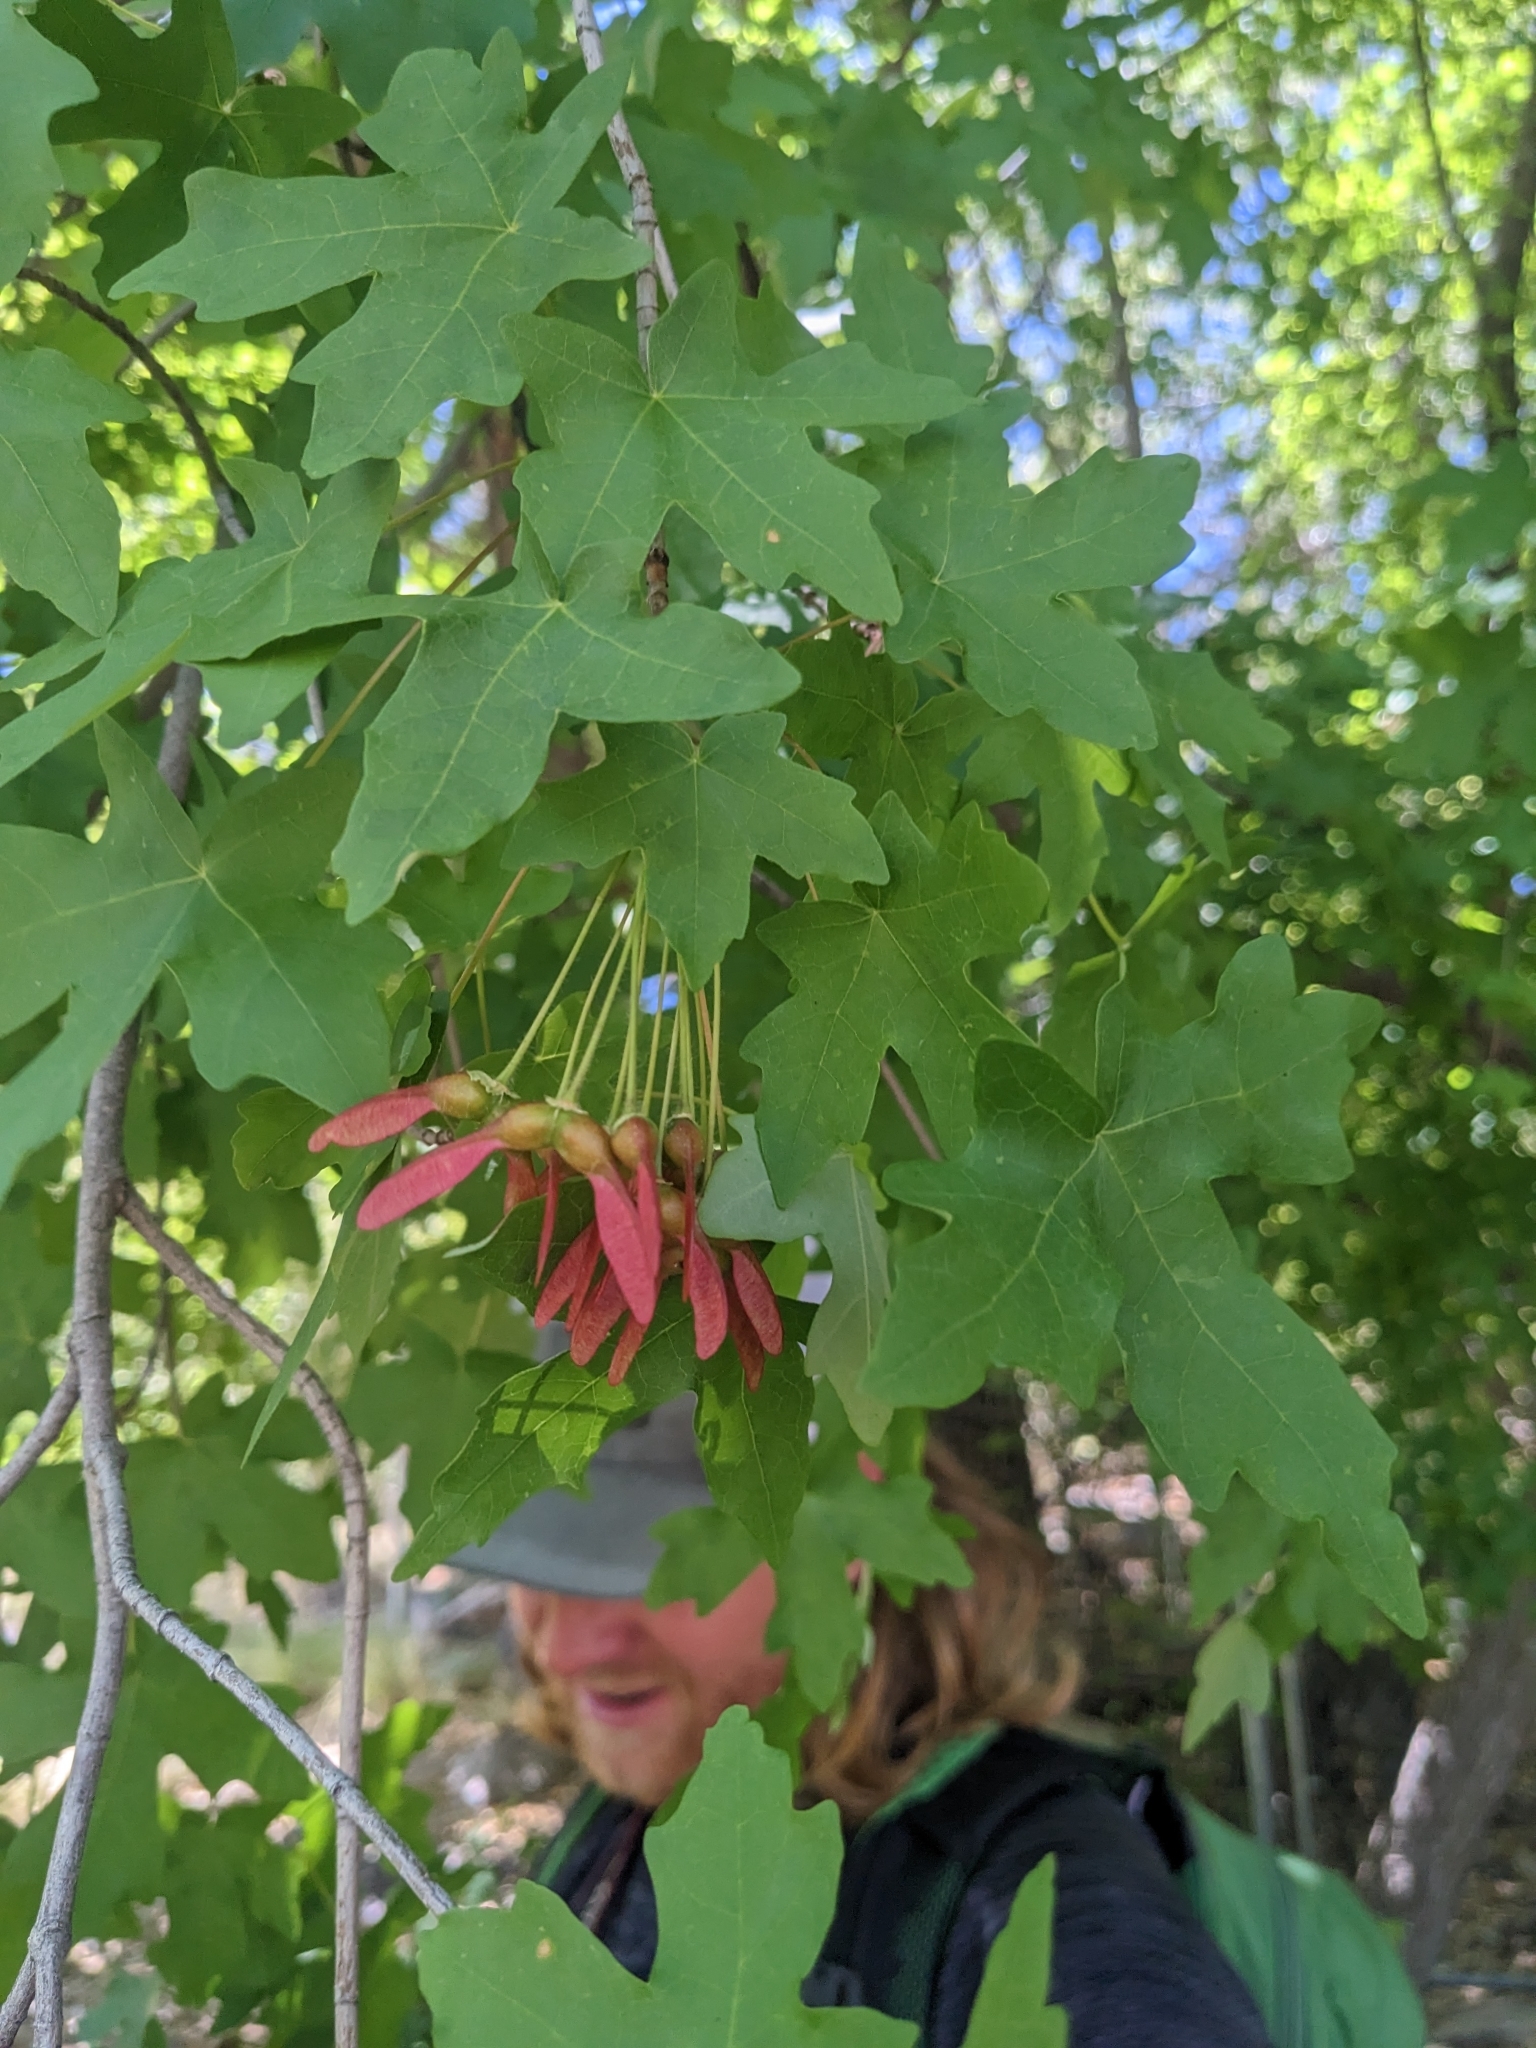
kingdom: Plantae
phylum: Tracheophyta
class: Magnoliopsida
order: Sapindales
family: Sapindaceae
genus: Acer
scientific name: Acer grandidentatum
